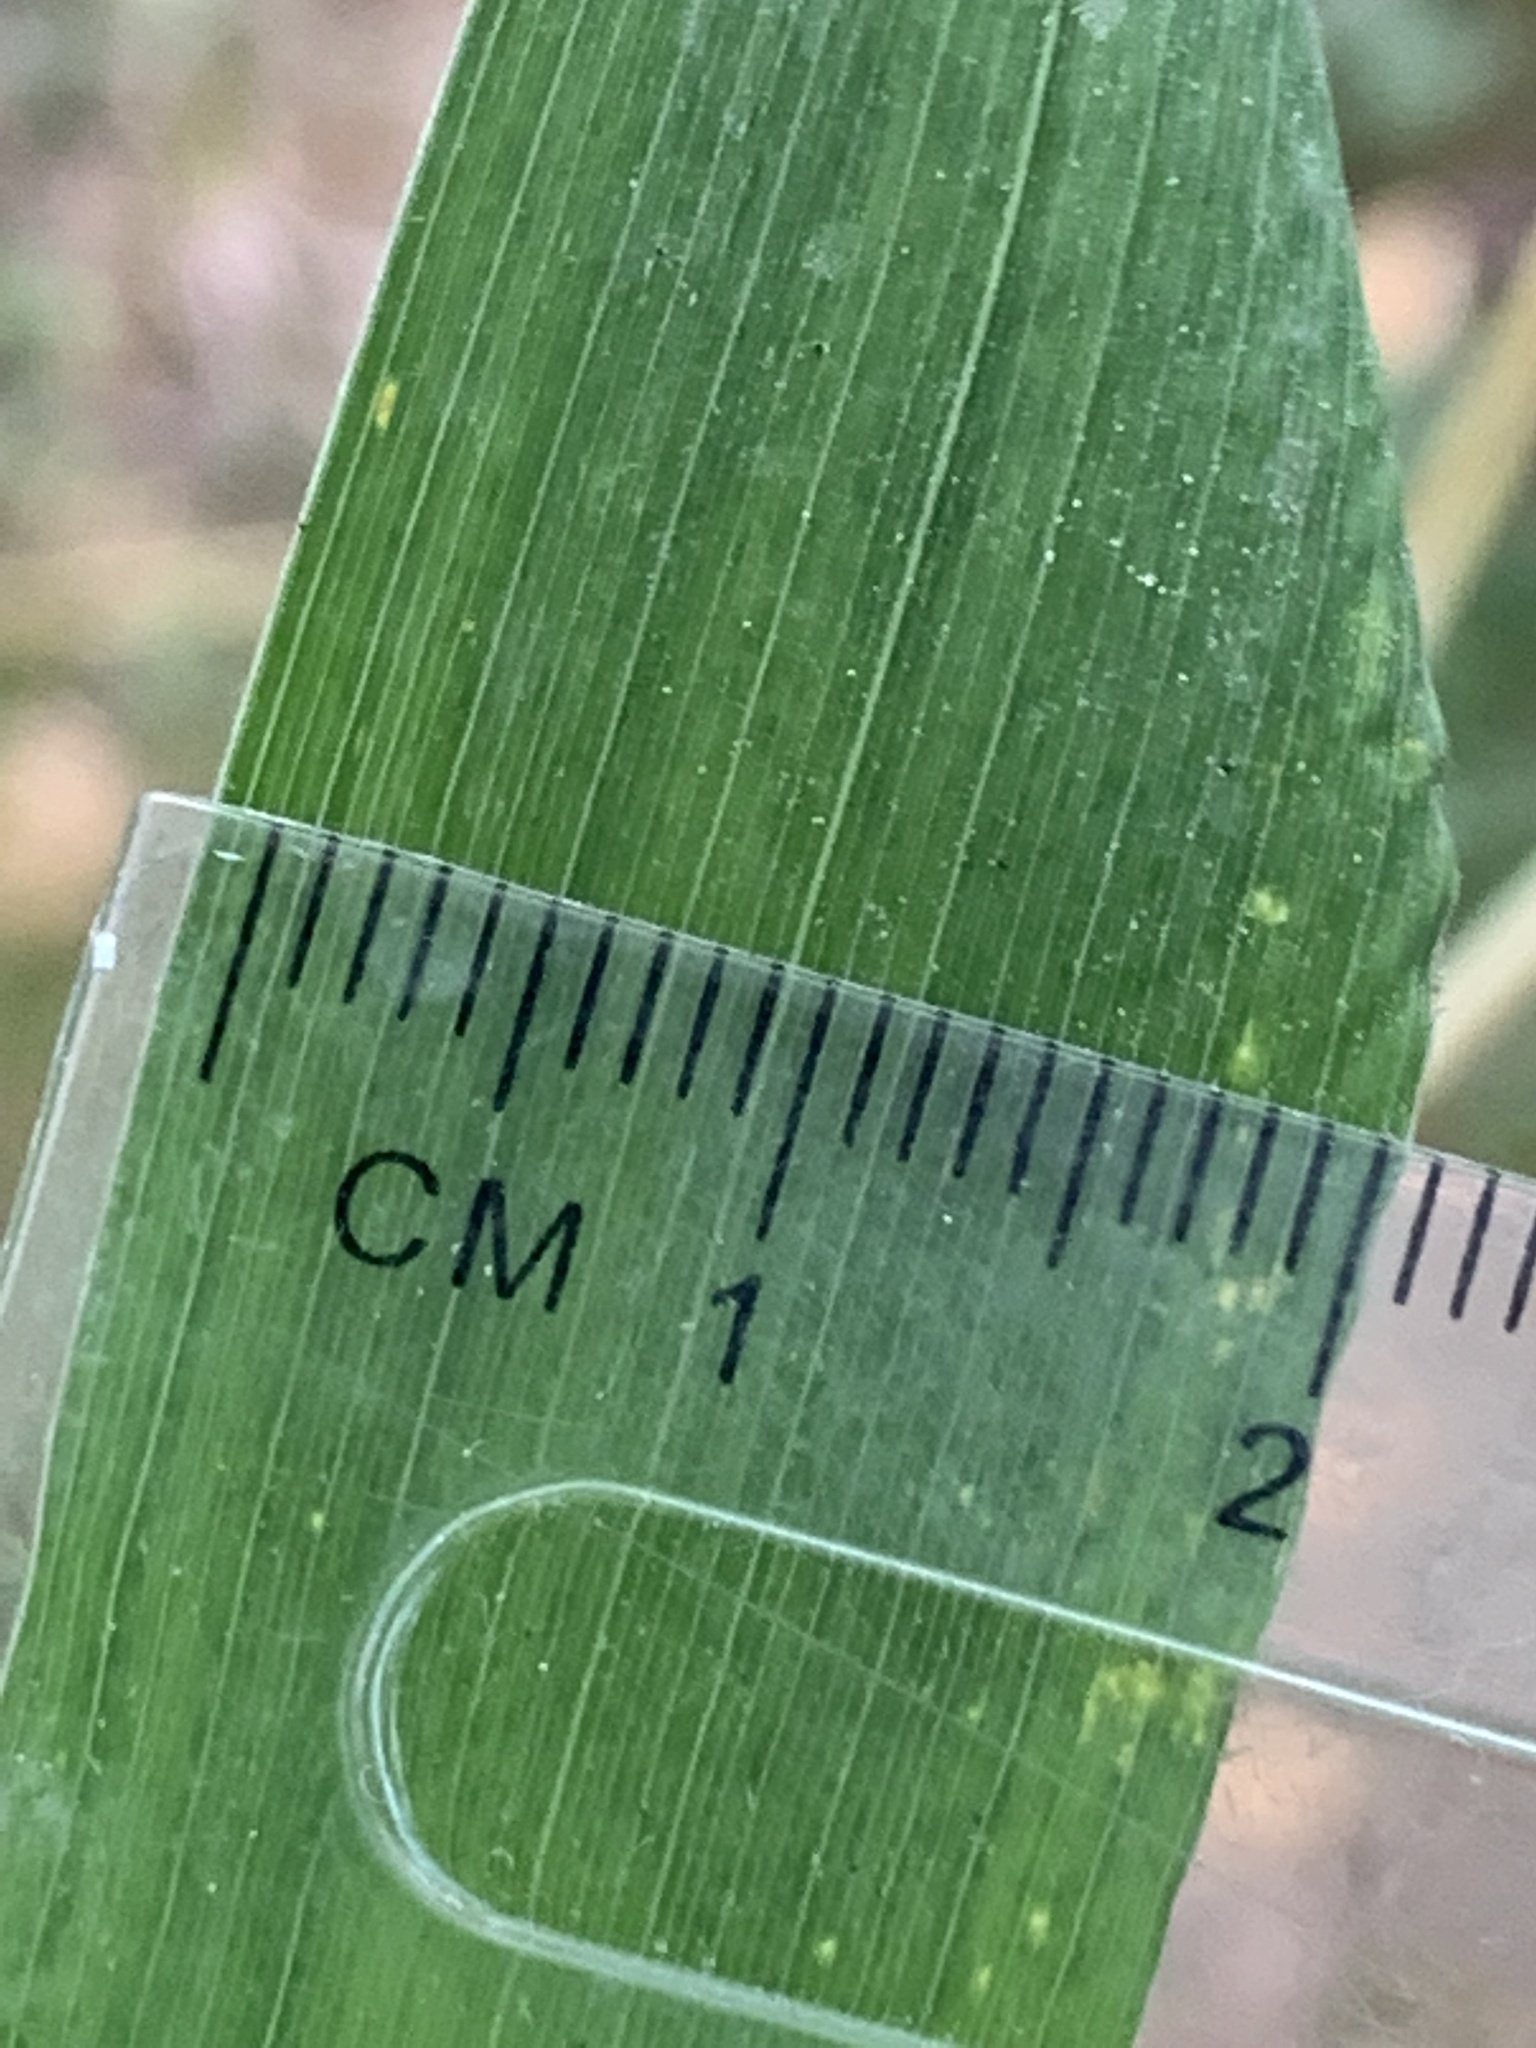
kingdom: Plantae
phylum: Tracheophyta
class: Liliopsida
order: Poales
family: Poaceae
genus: Elymus
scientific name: Elymus glaucus
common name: Blue wild rye
